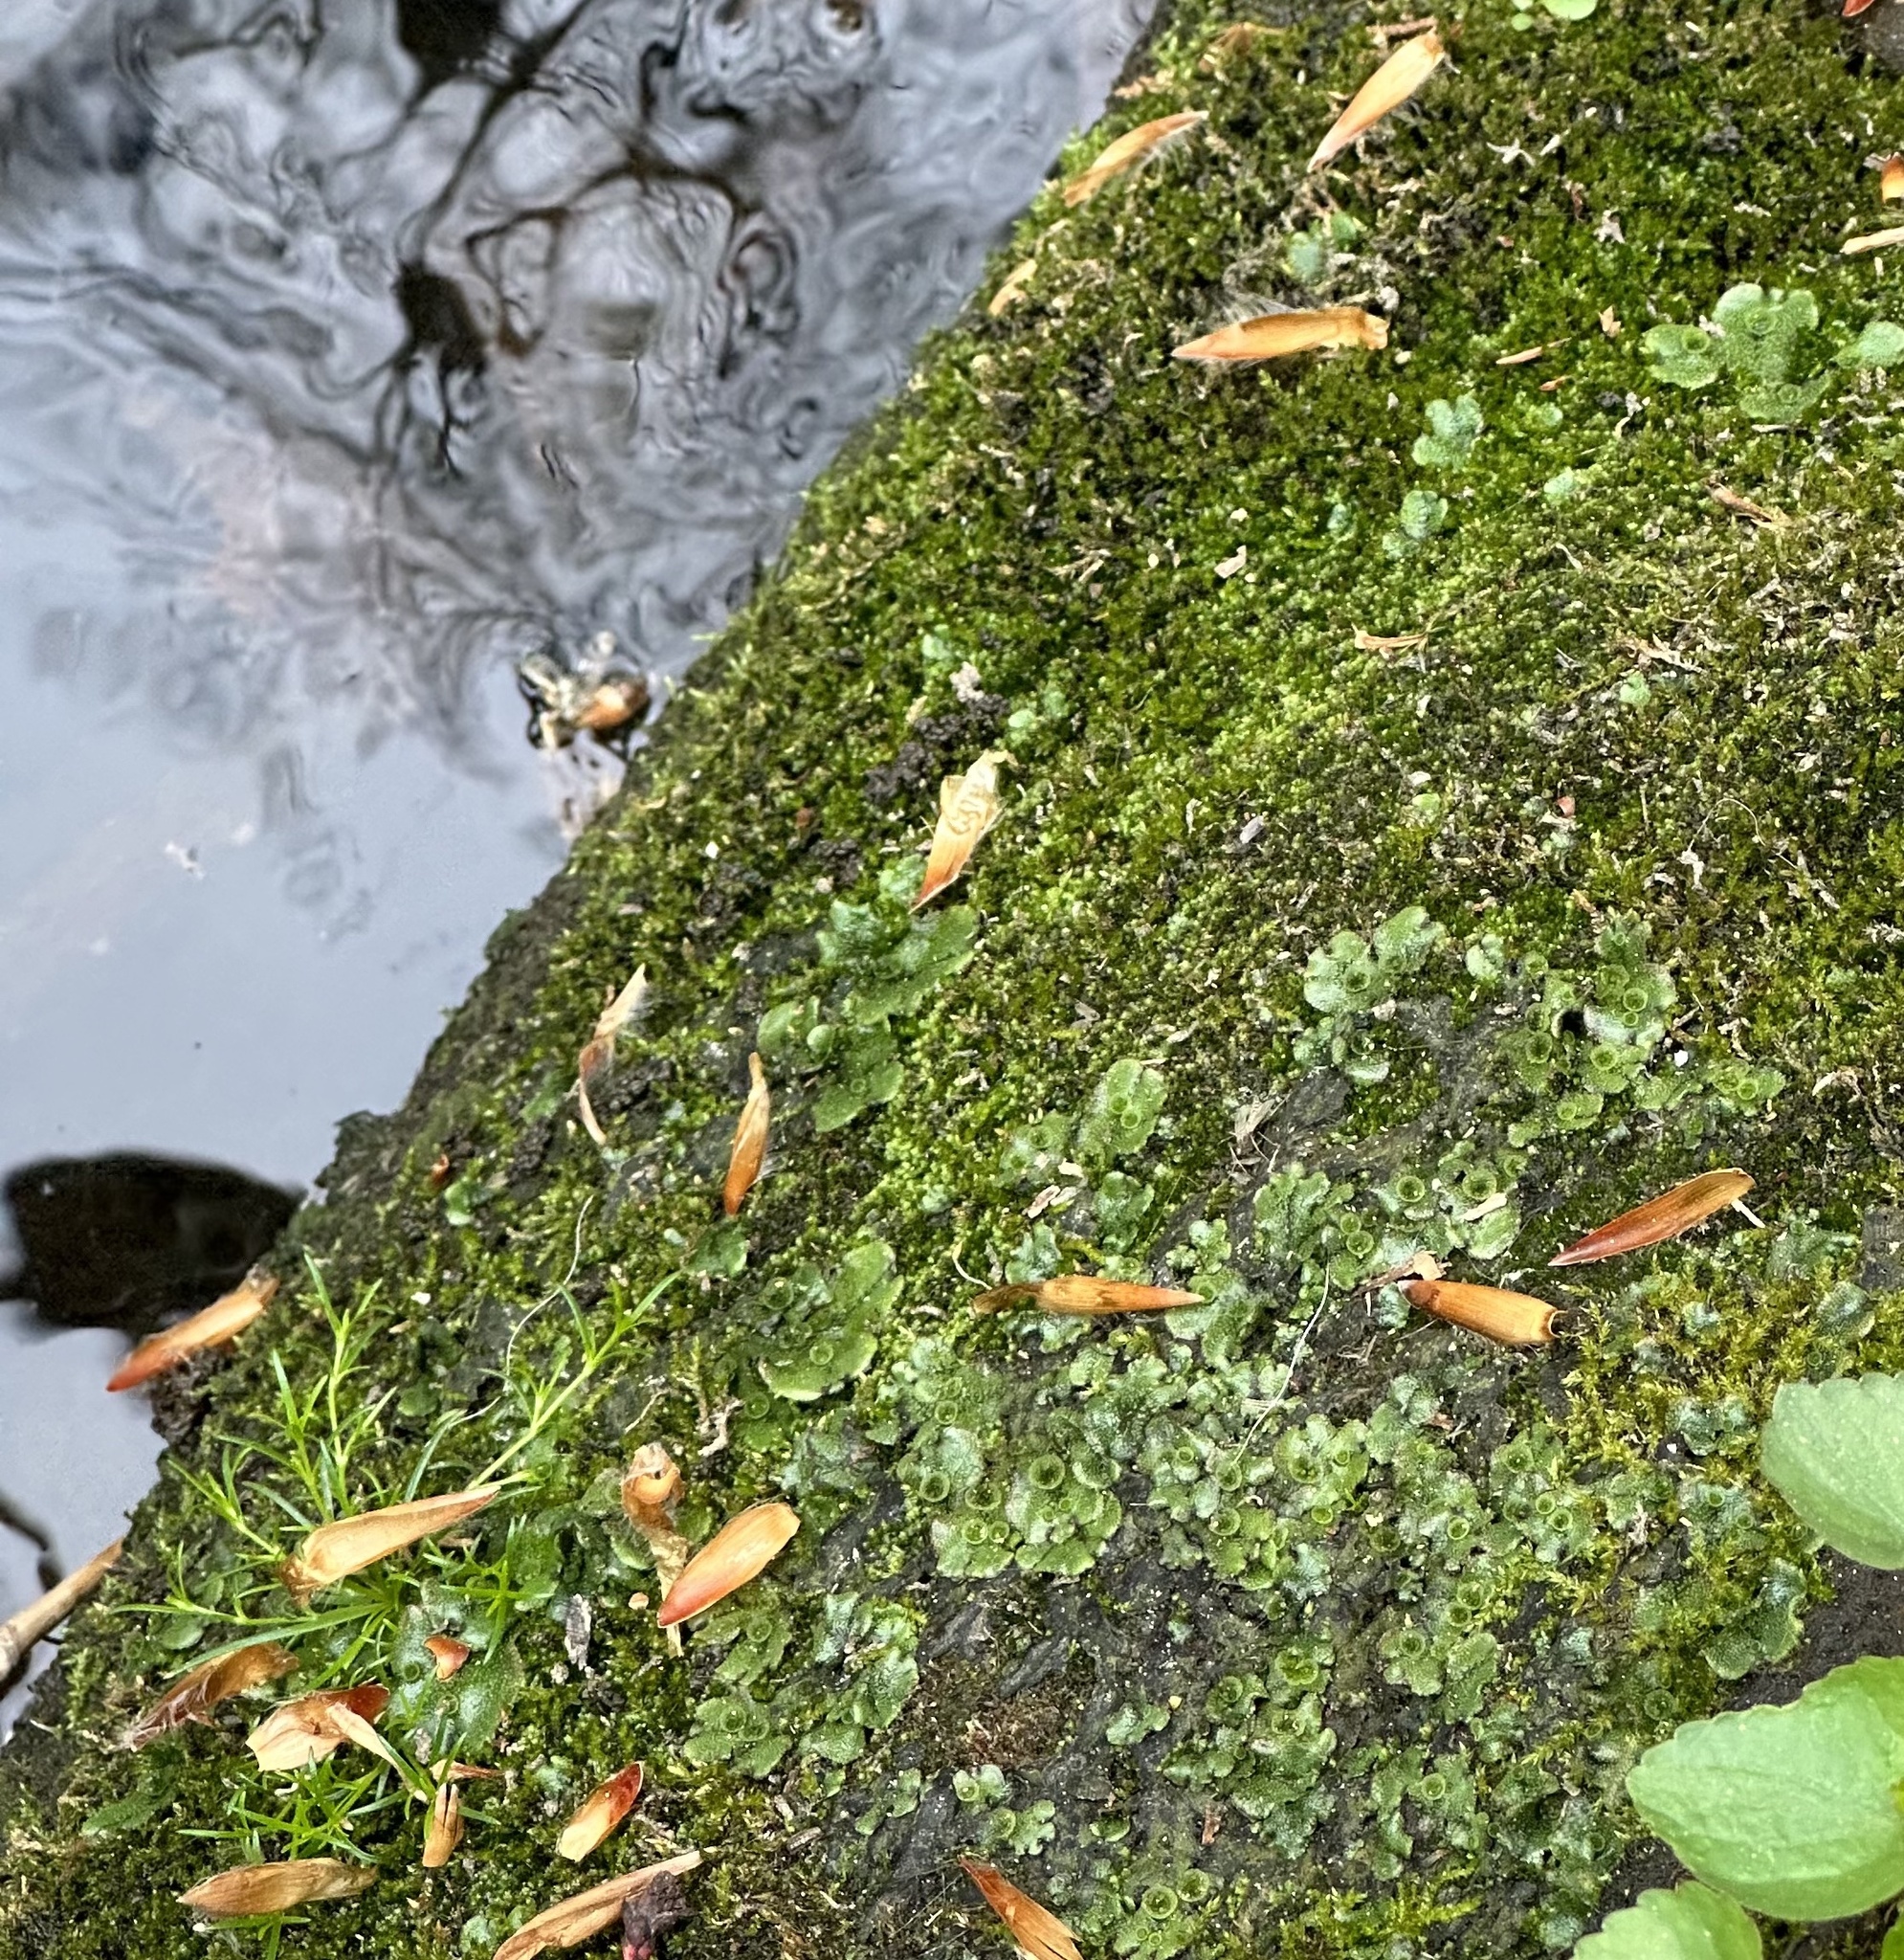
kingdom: Plantae
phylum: Marchantiophyta
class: Marchantiopsida
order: Marchantiales
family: Marchantiaceae
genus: Marchantia
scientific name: Marchantia polymorpha
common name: Common liverwort
